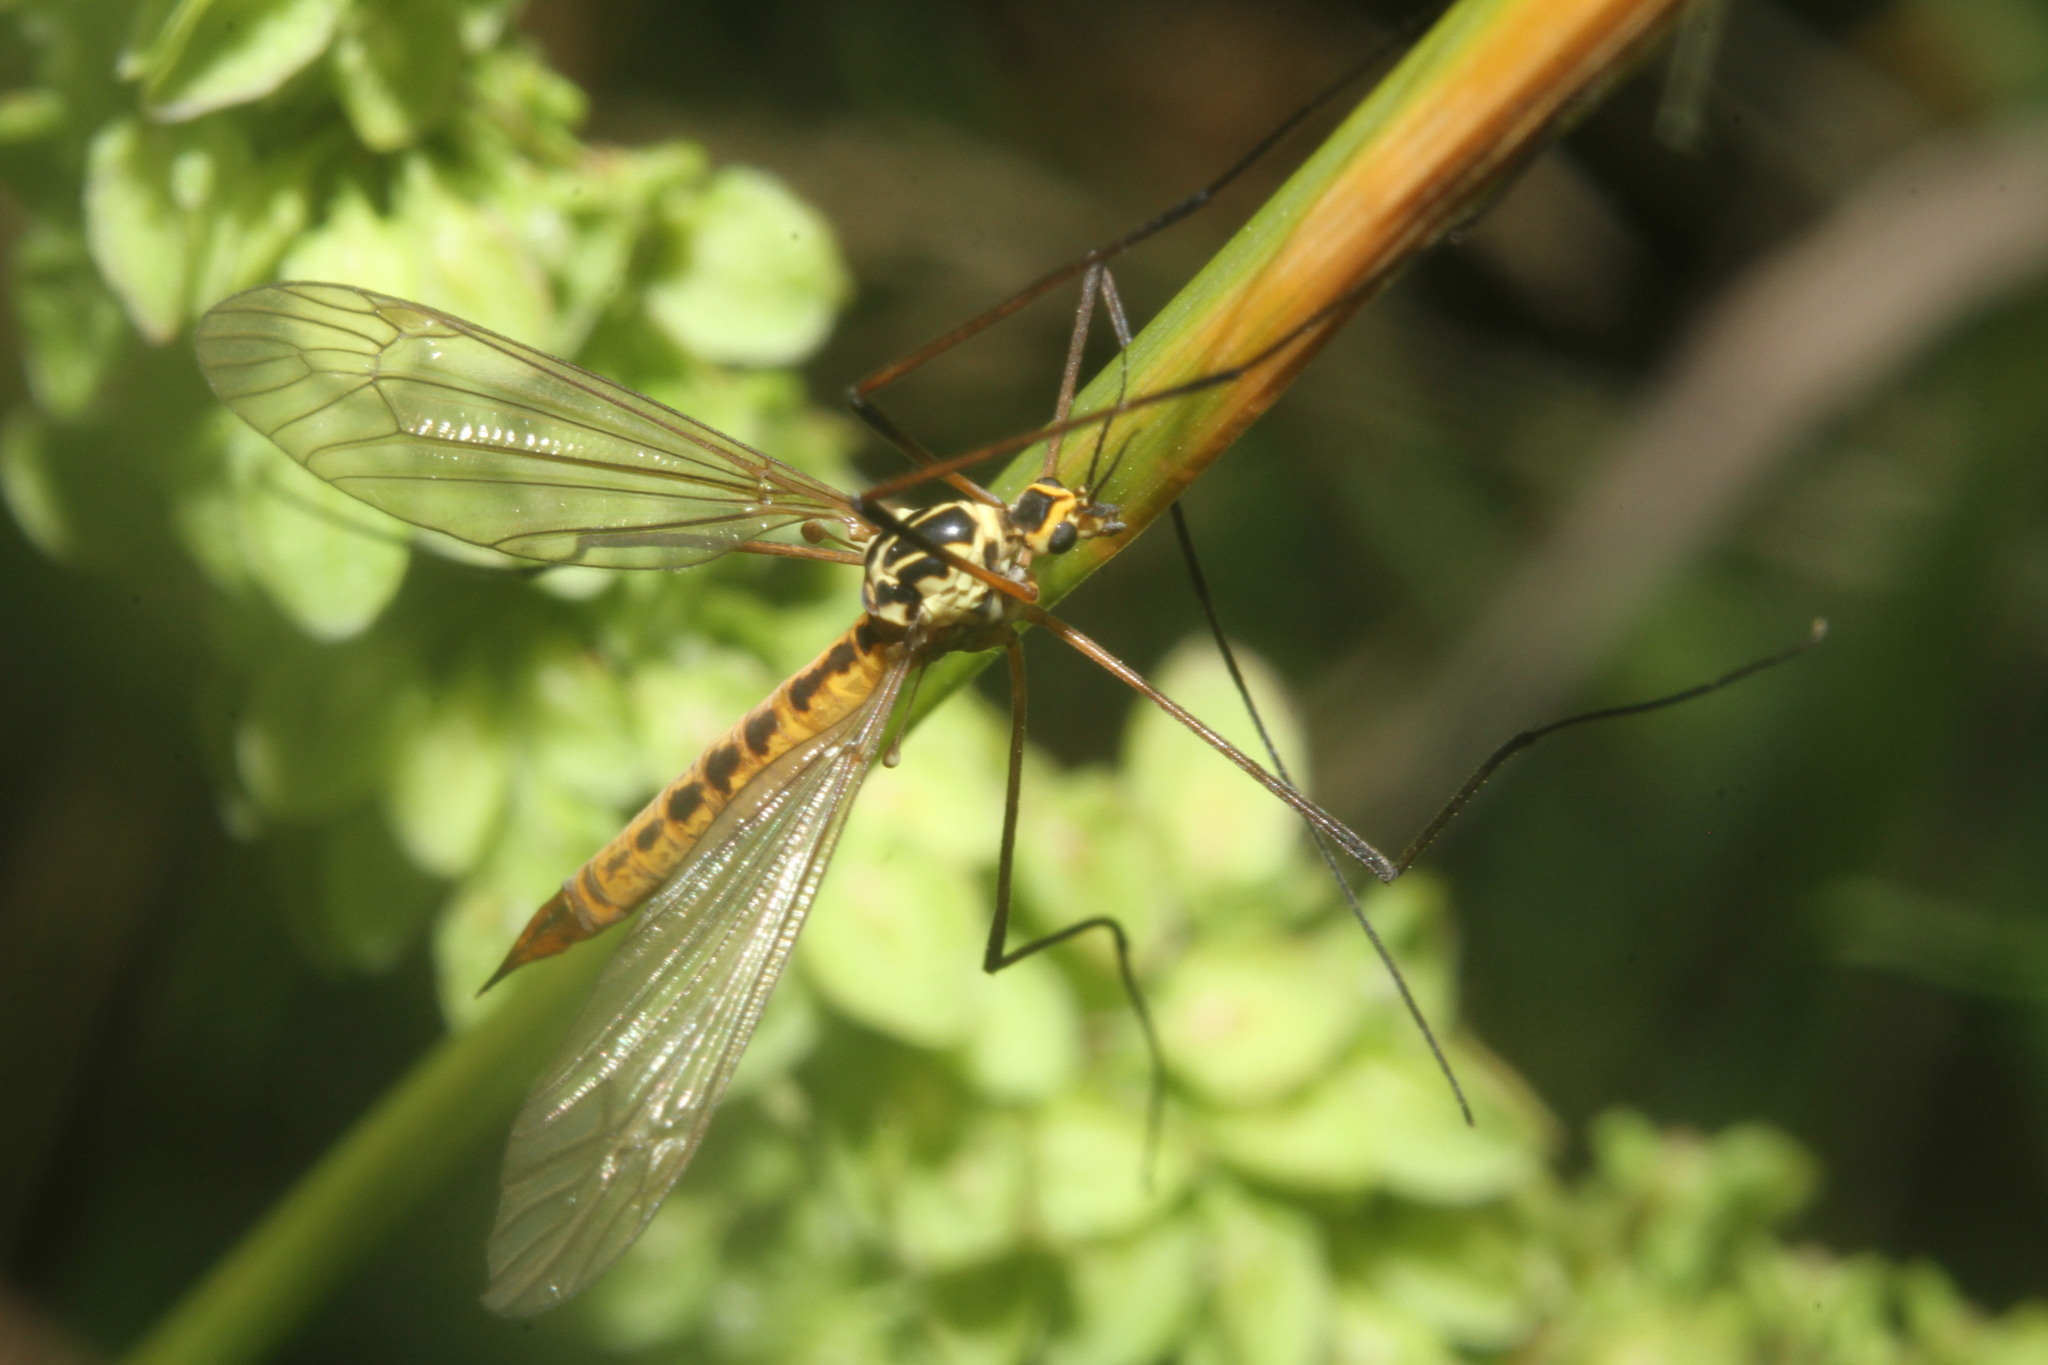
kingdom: Animalia
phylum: Arthropoda
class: Insecta
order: Diptera
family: Tipulidae
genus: Nephrotoma
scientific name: Nephrotoma flavescens
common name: Tiger cranefly
